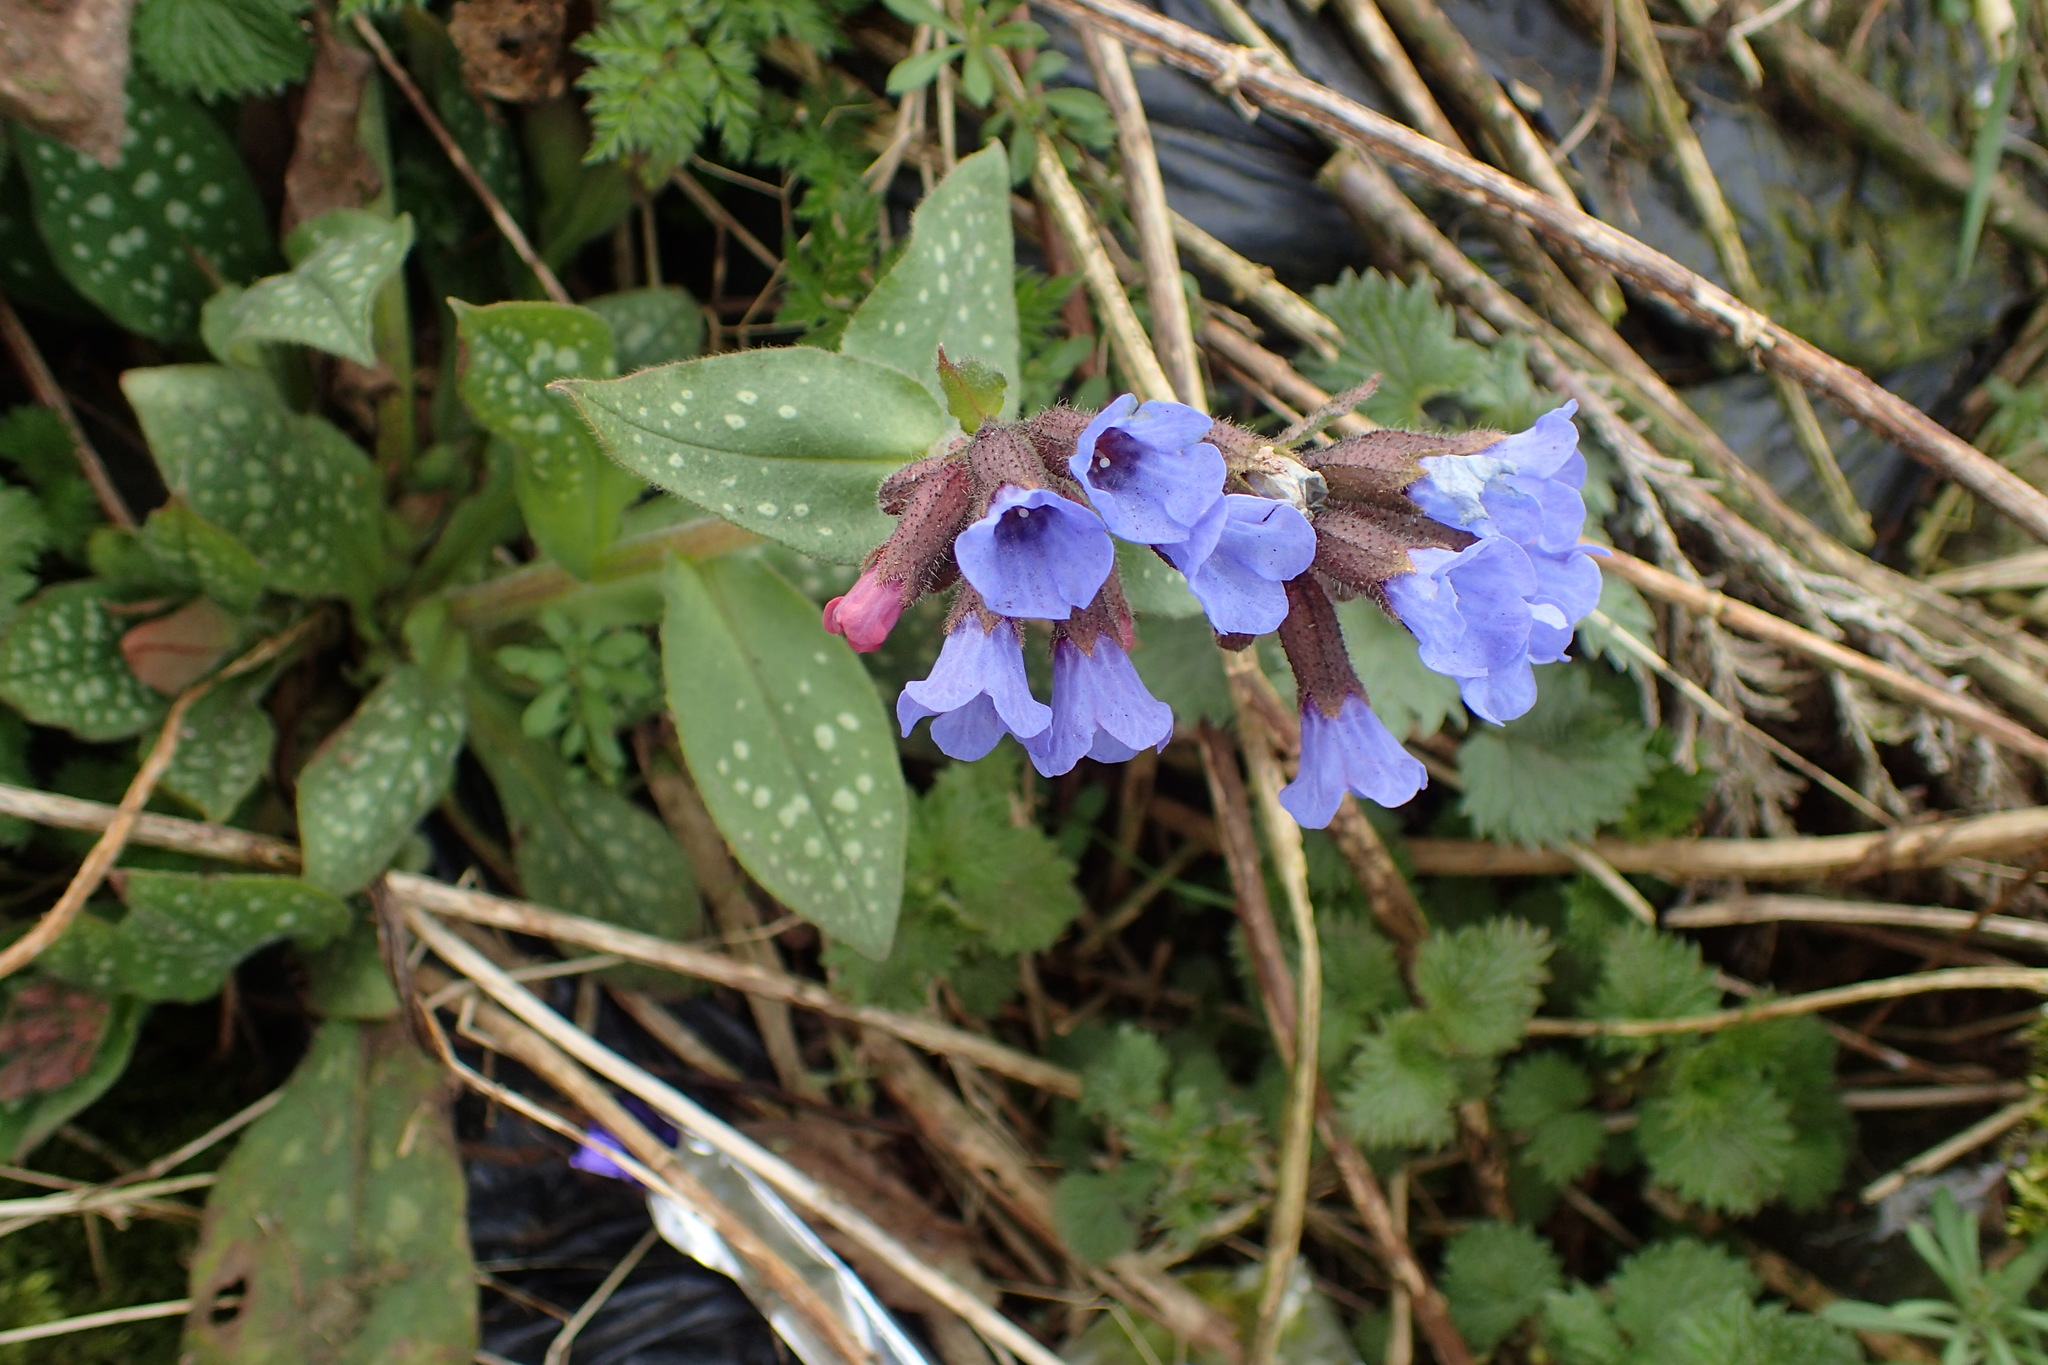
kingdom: Plantae
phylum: Tracheophyta
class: Magnoliopsida
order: Boraginales
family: Boraginaceae
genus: Pulmonaria
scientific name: Pulmonaria officinalis
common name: Lungwort
